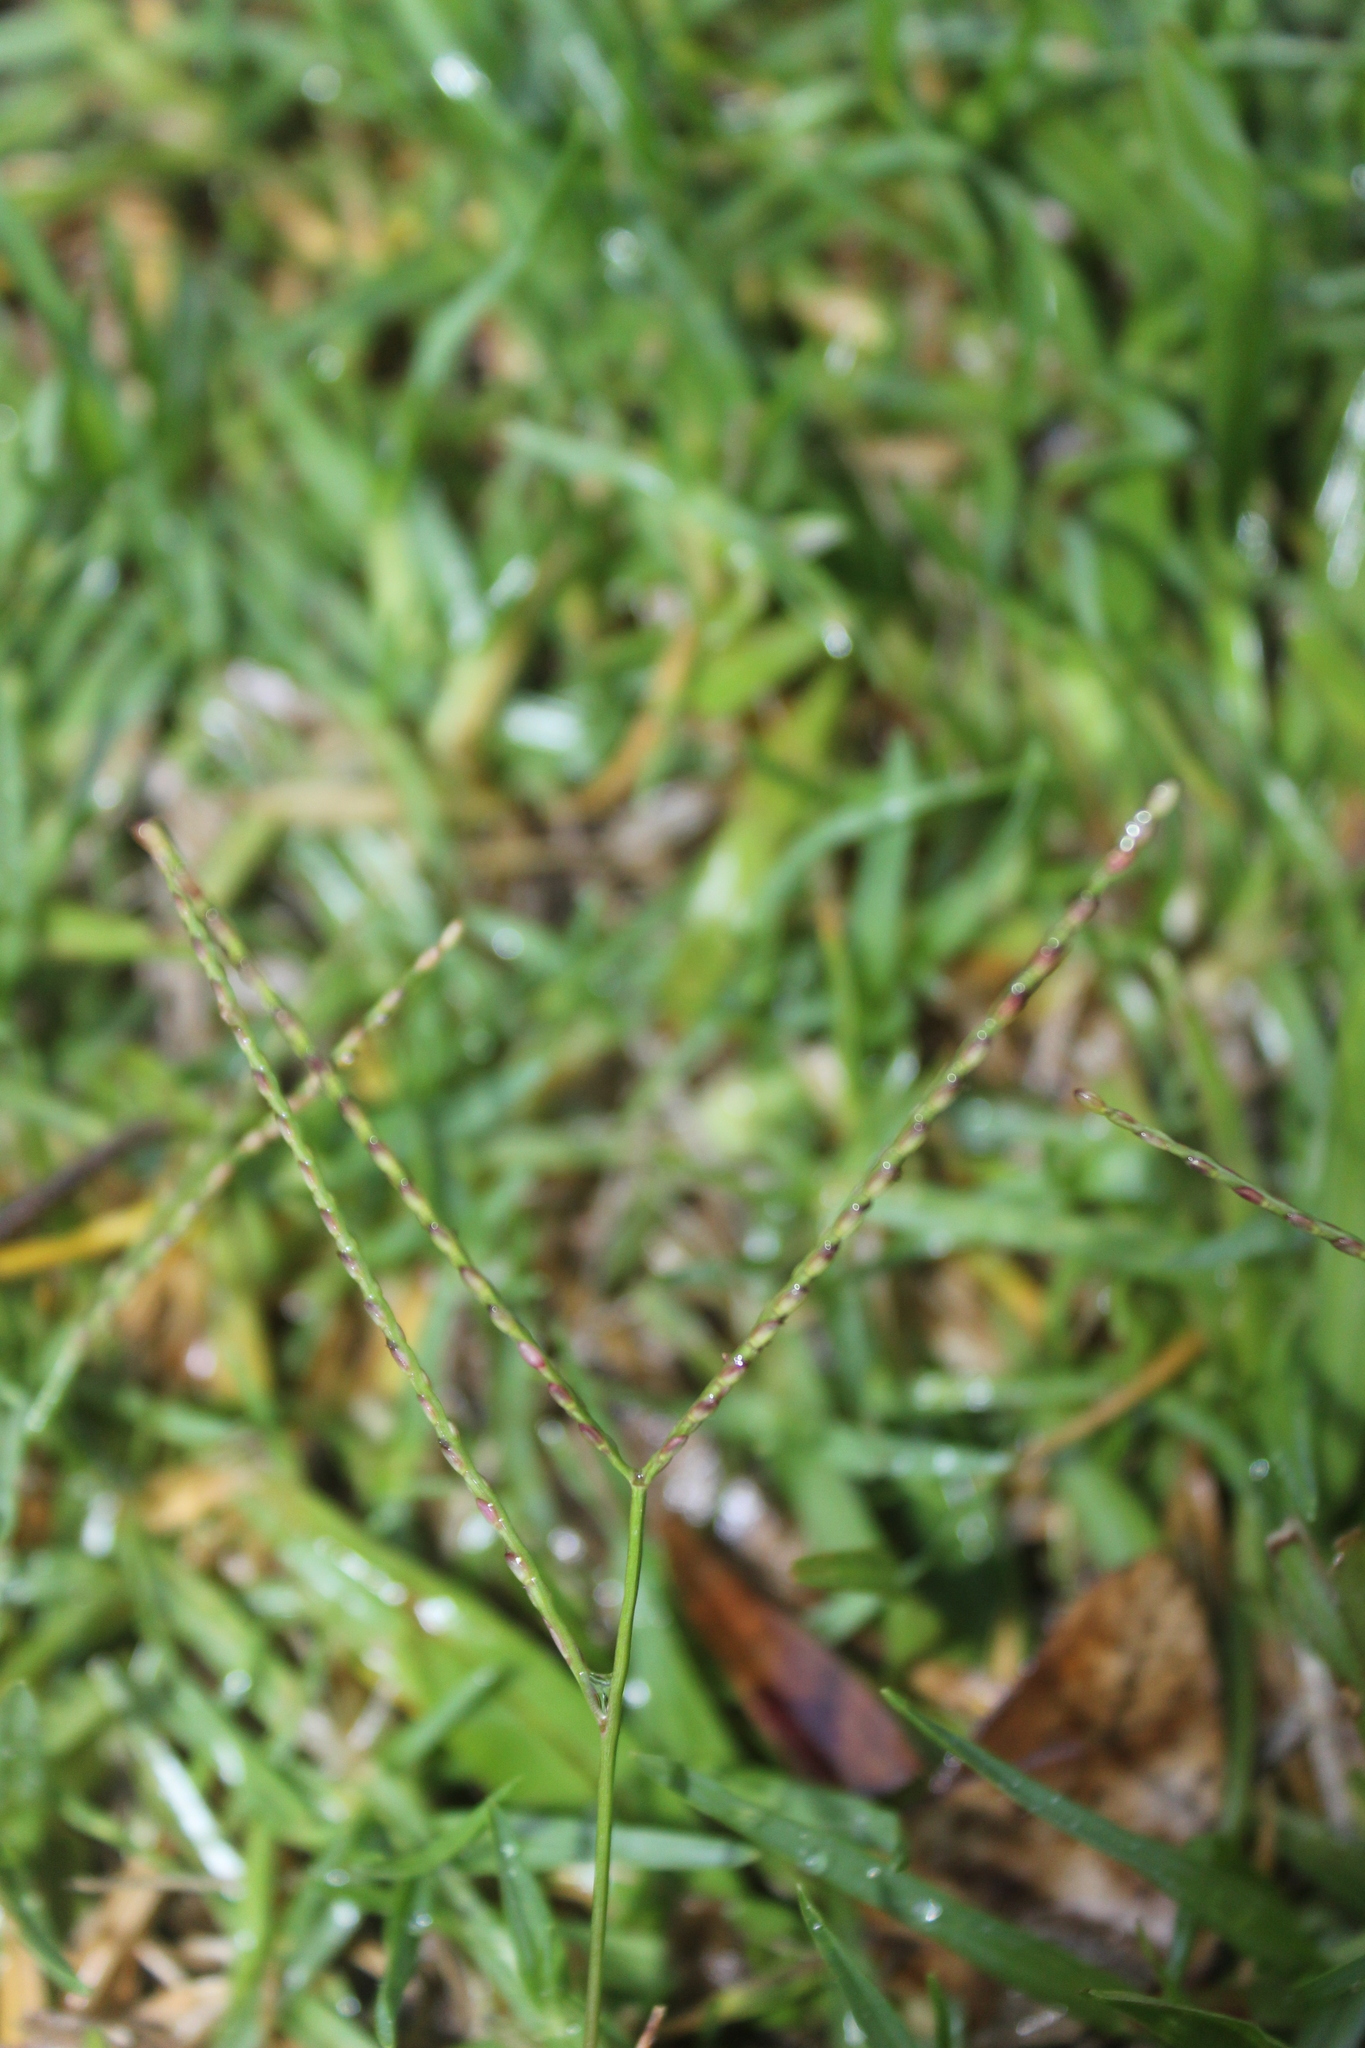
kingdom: Plantae
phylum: Tracheophyta
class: Liliopsida
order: Poales
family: Poaceae
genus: Axonopus
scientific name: Axonopus fissifolius
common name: Common carpetgrass
